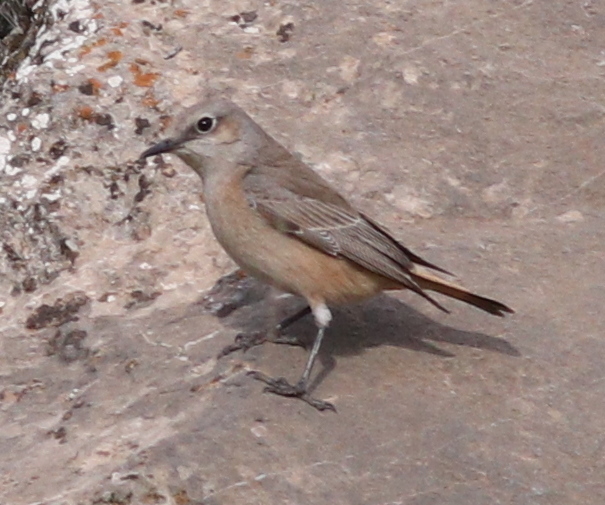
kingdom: Animalia
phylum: Chordata
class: Aves
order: Passeriformes
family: Muscicapidae
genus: Oenanthe
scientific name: Oenanthe chrysopygia
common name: Red-tailed wheatear
